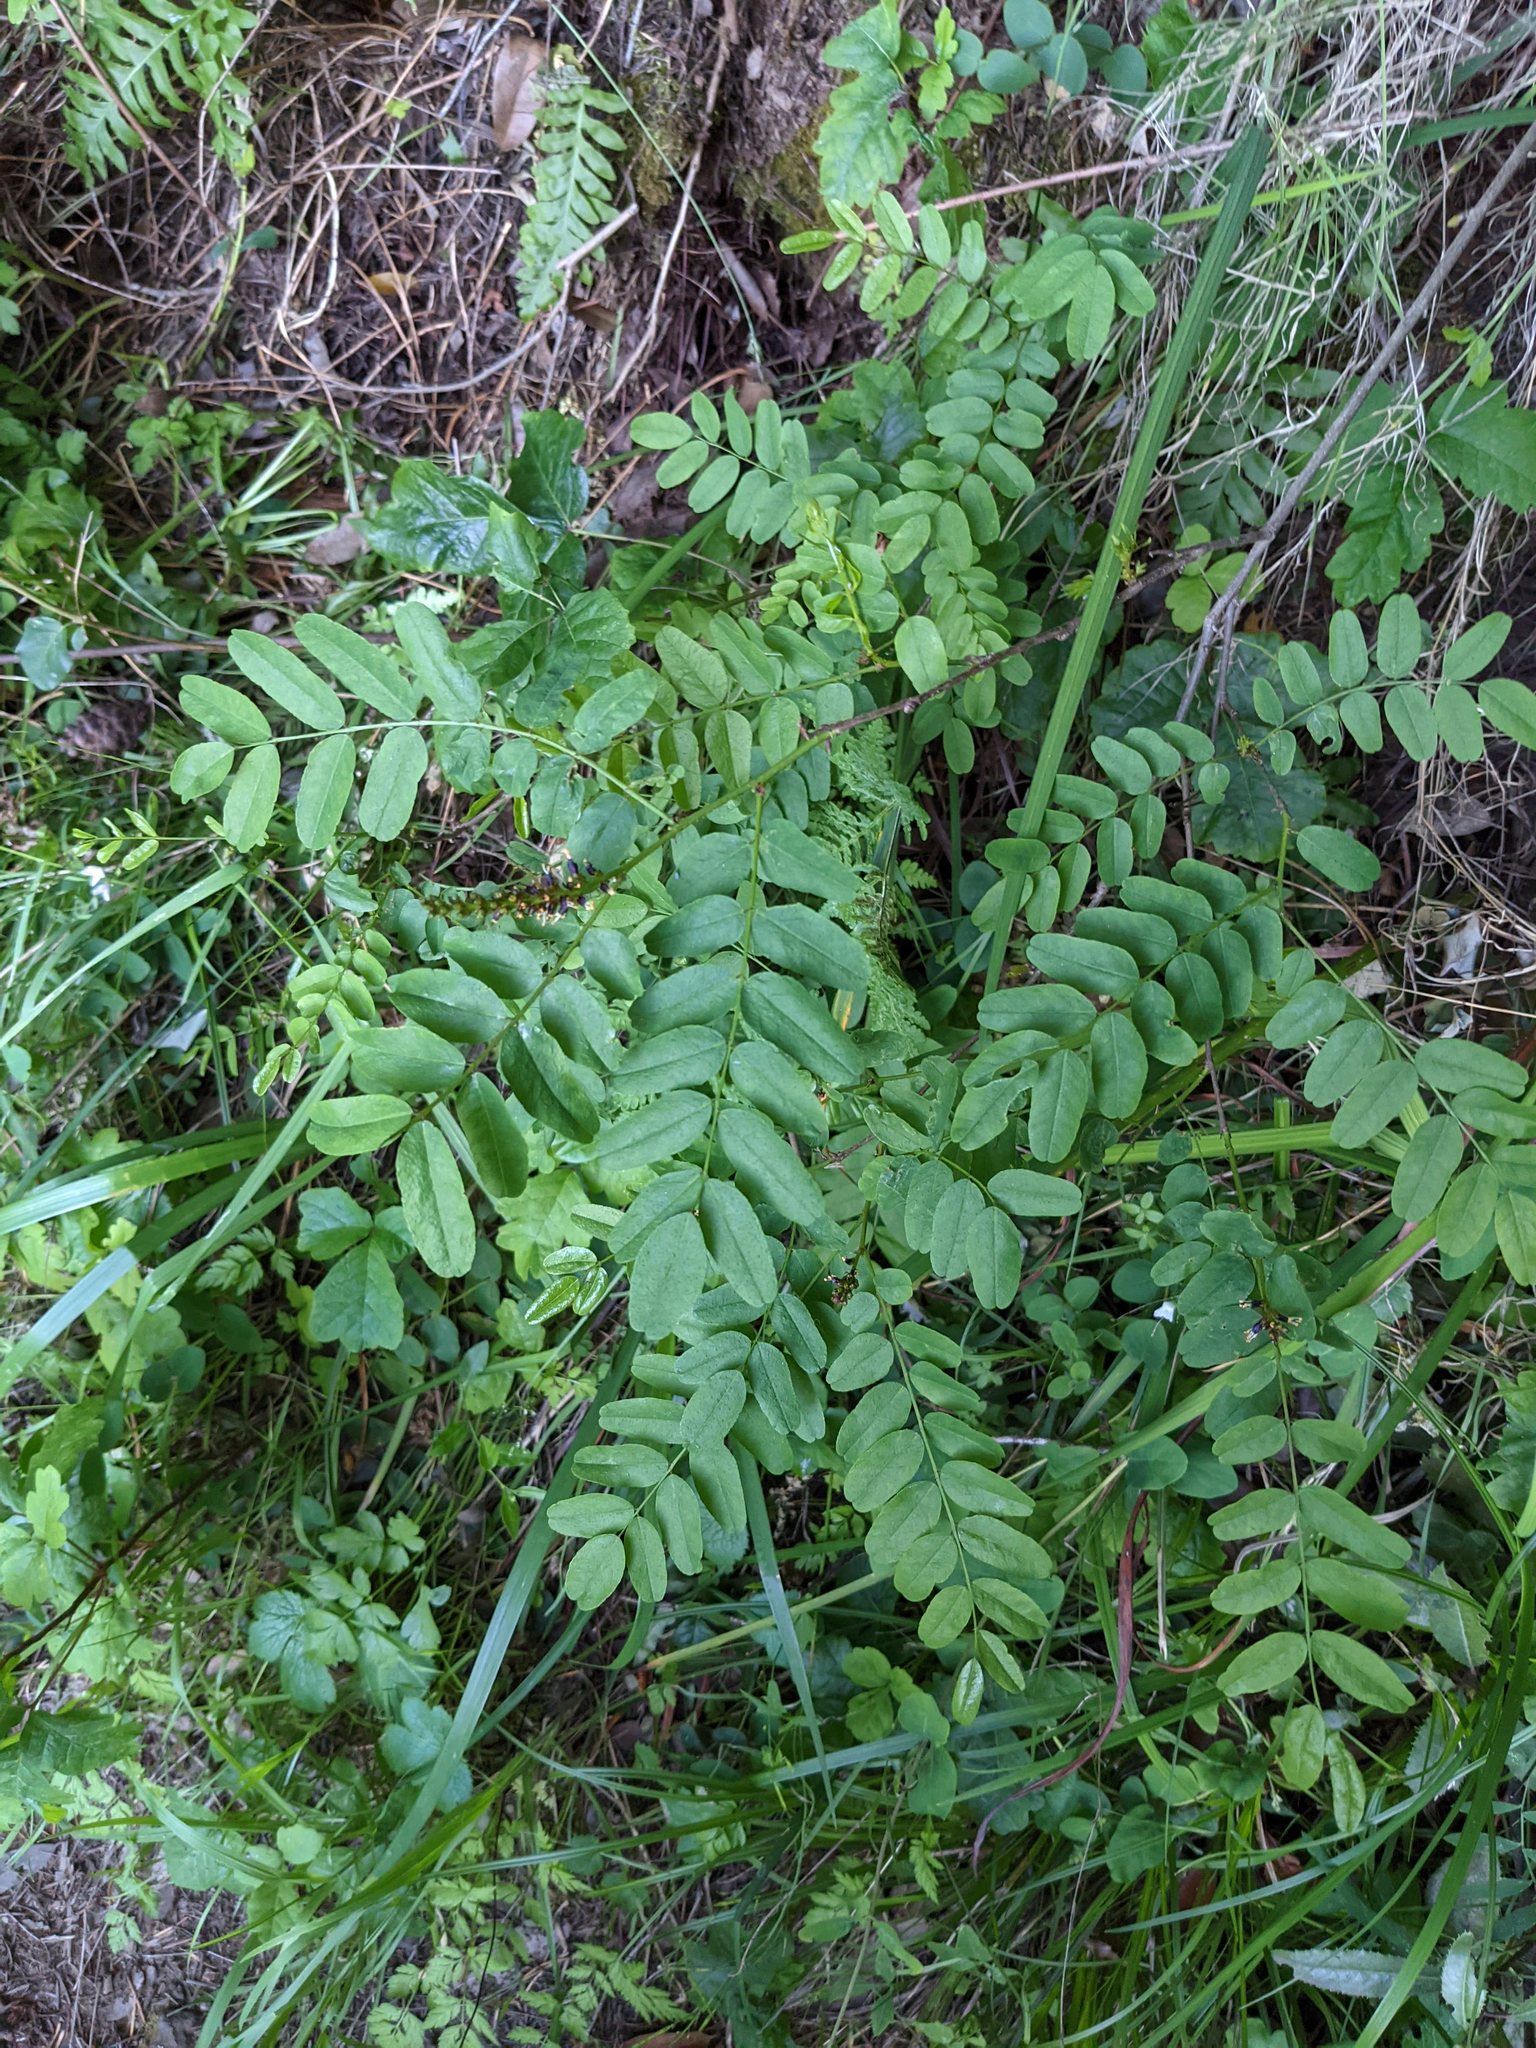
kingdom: Plantae
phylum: Tracheophyta
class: Magnoliopsida
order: Fabales
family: Fabaceae
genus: Amorpha
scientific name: Amorpha californica
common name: California indigobush
